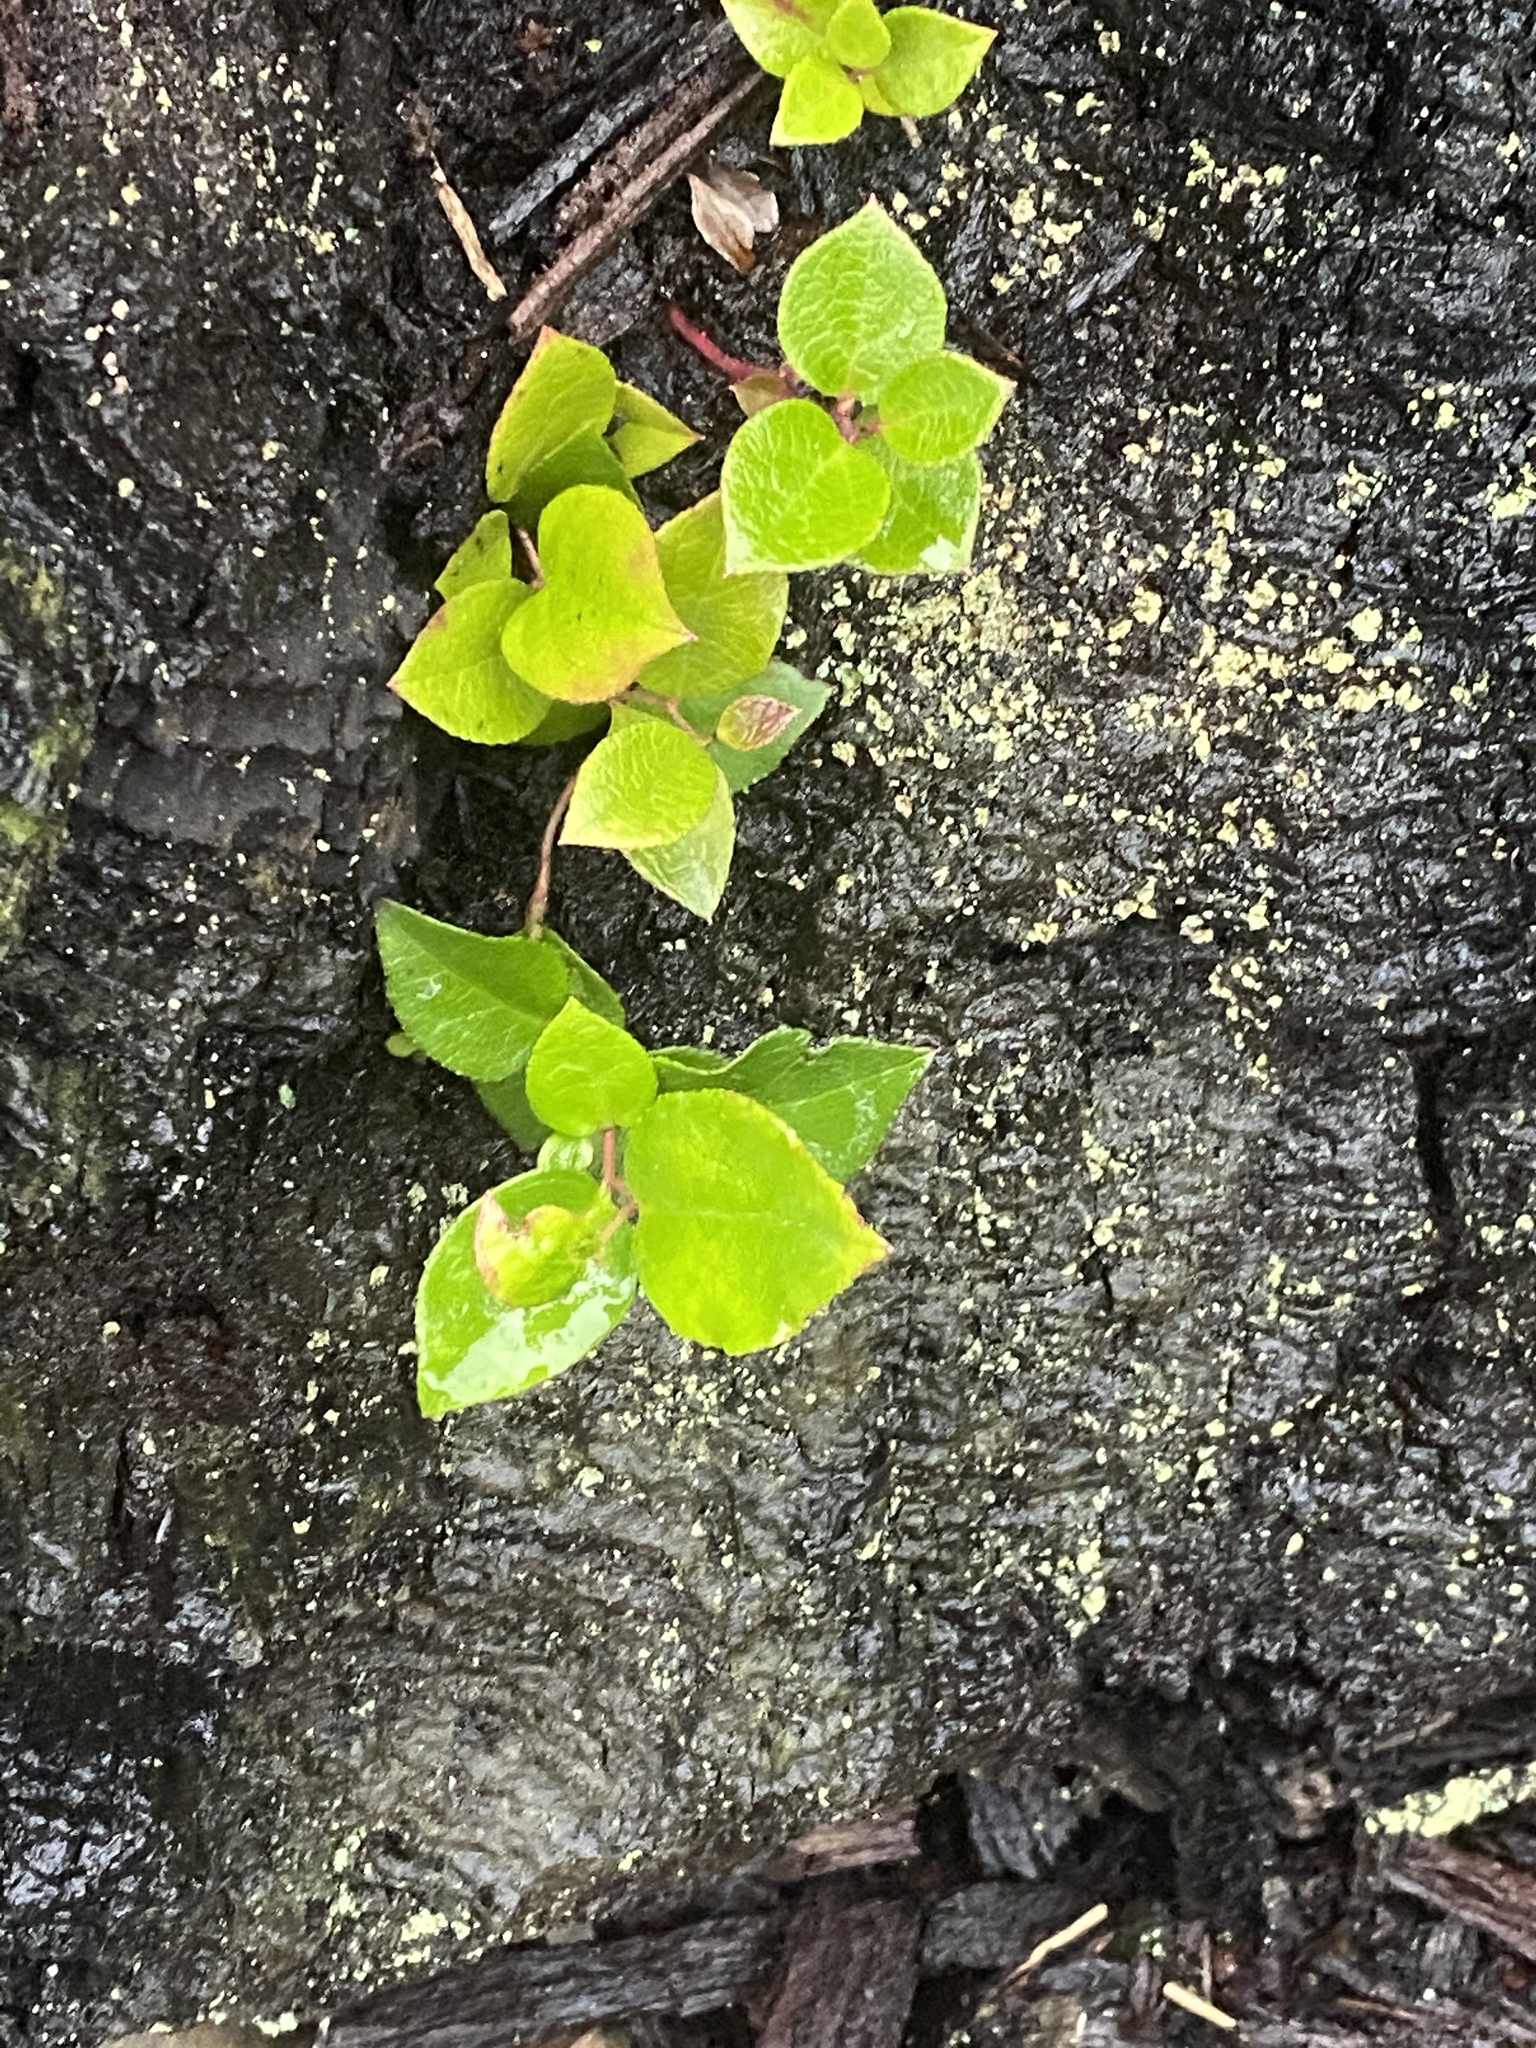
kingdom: Plantae
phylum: Tracheophyta
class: Magnoliopsida
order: Ericales
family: Ericaceae
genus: Gaultheria
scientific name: Gaultheria shallon
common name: Shallon
